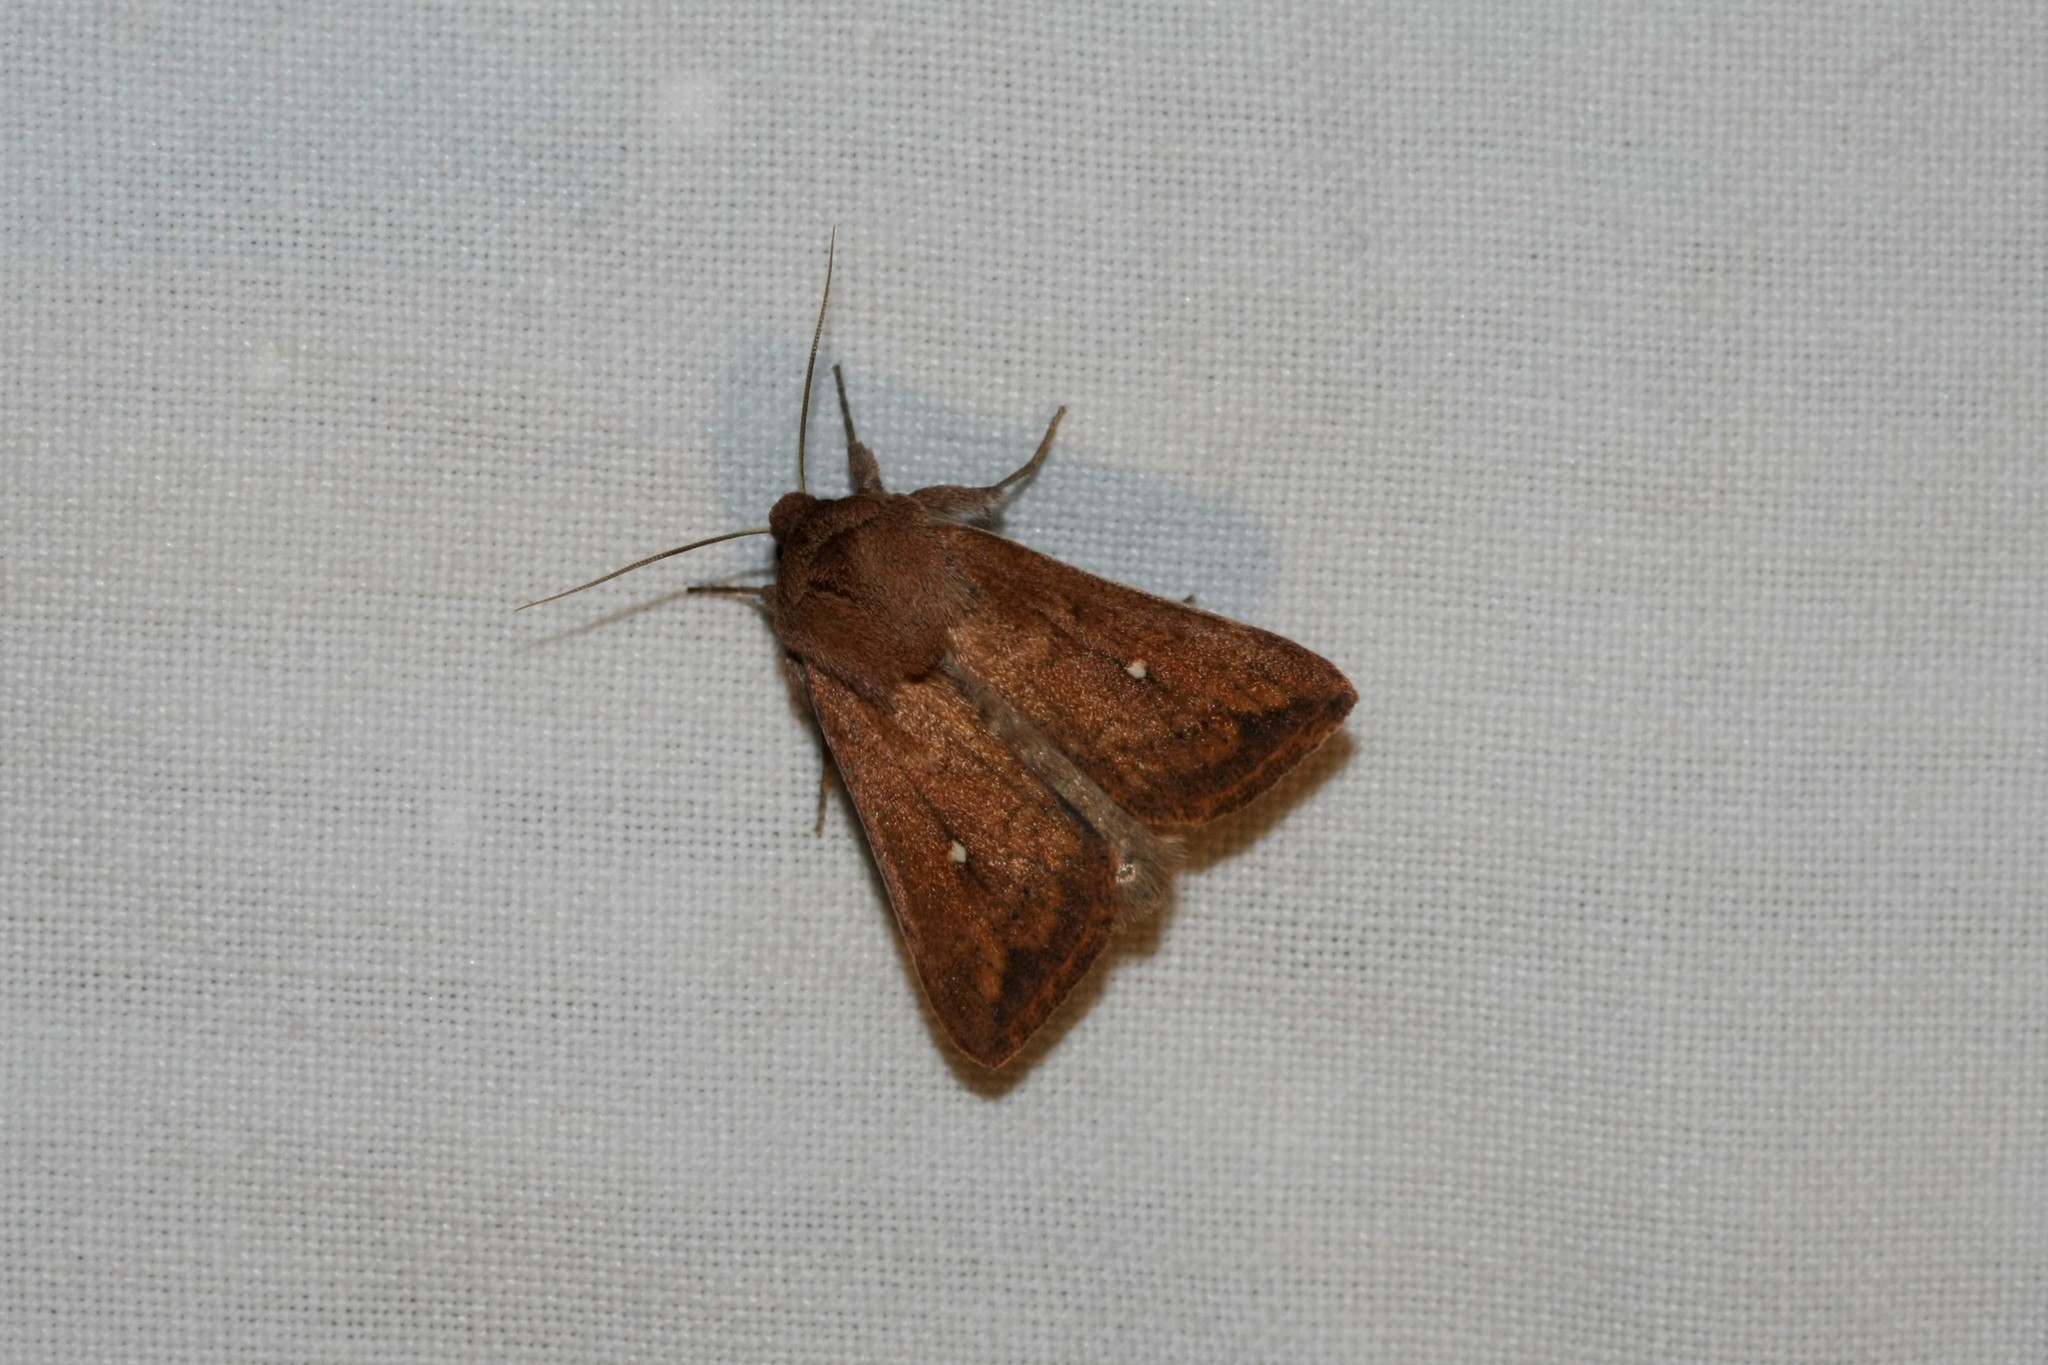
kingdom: Animalia
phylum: Arthropoda
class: Insecta
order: Lepidoptera
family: Noctuidae
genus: Mythimna
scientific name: Mythimna albipuncta
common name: White-point
